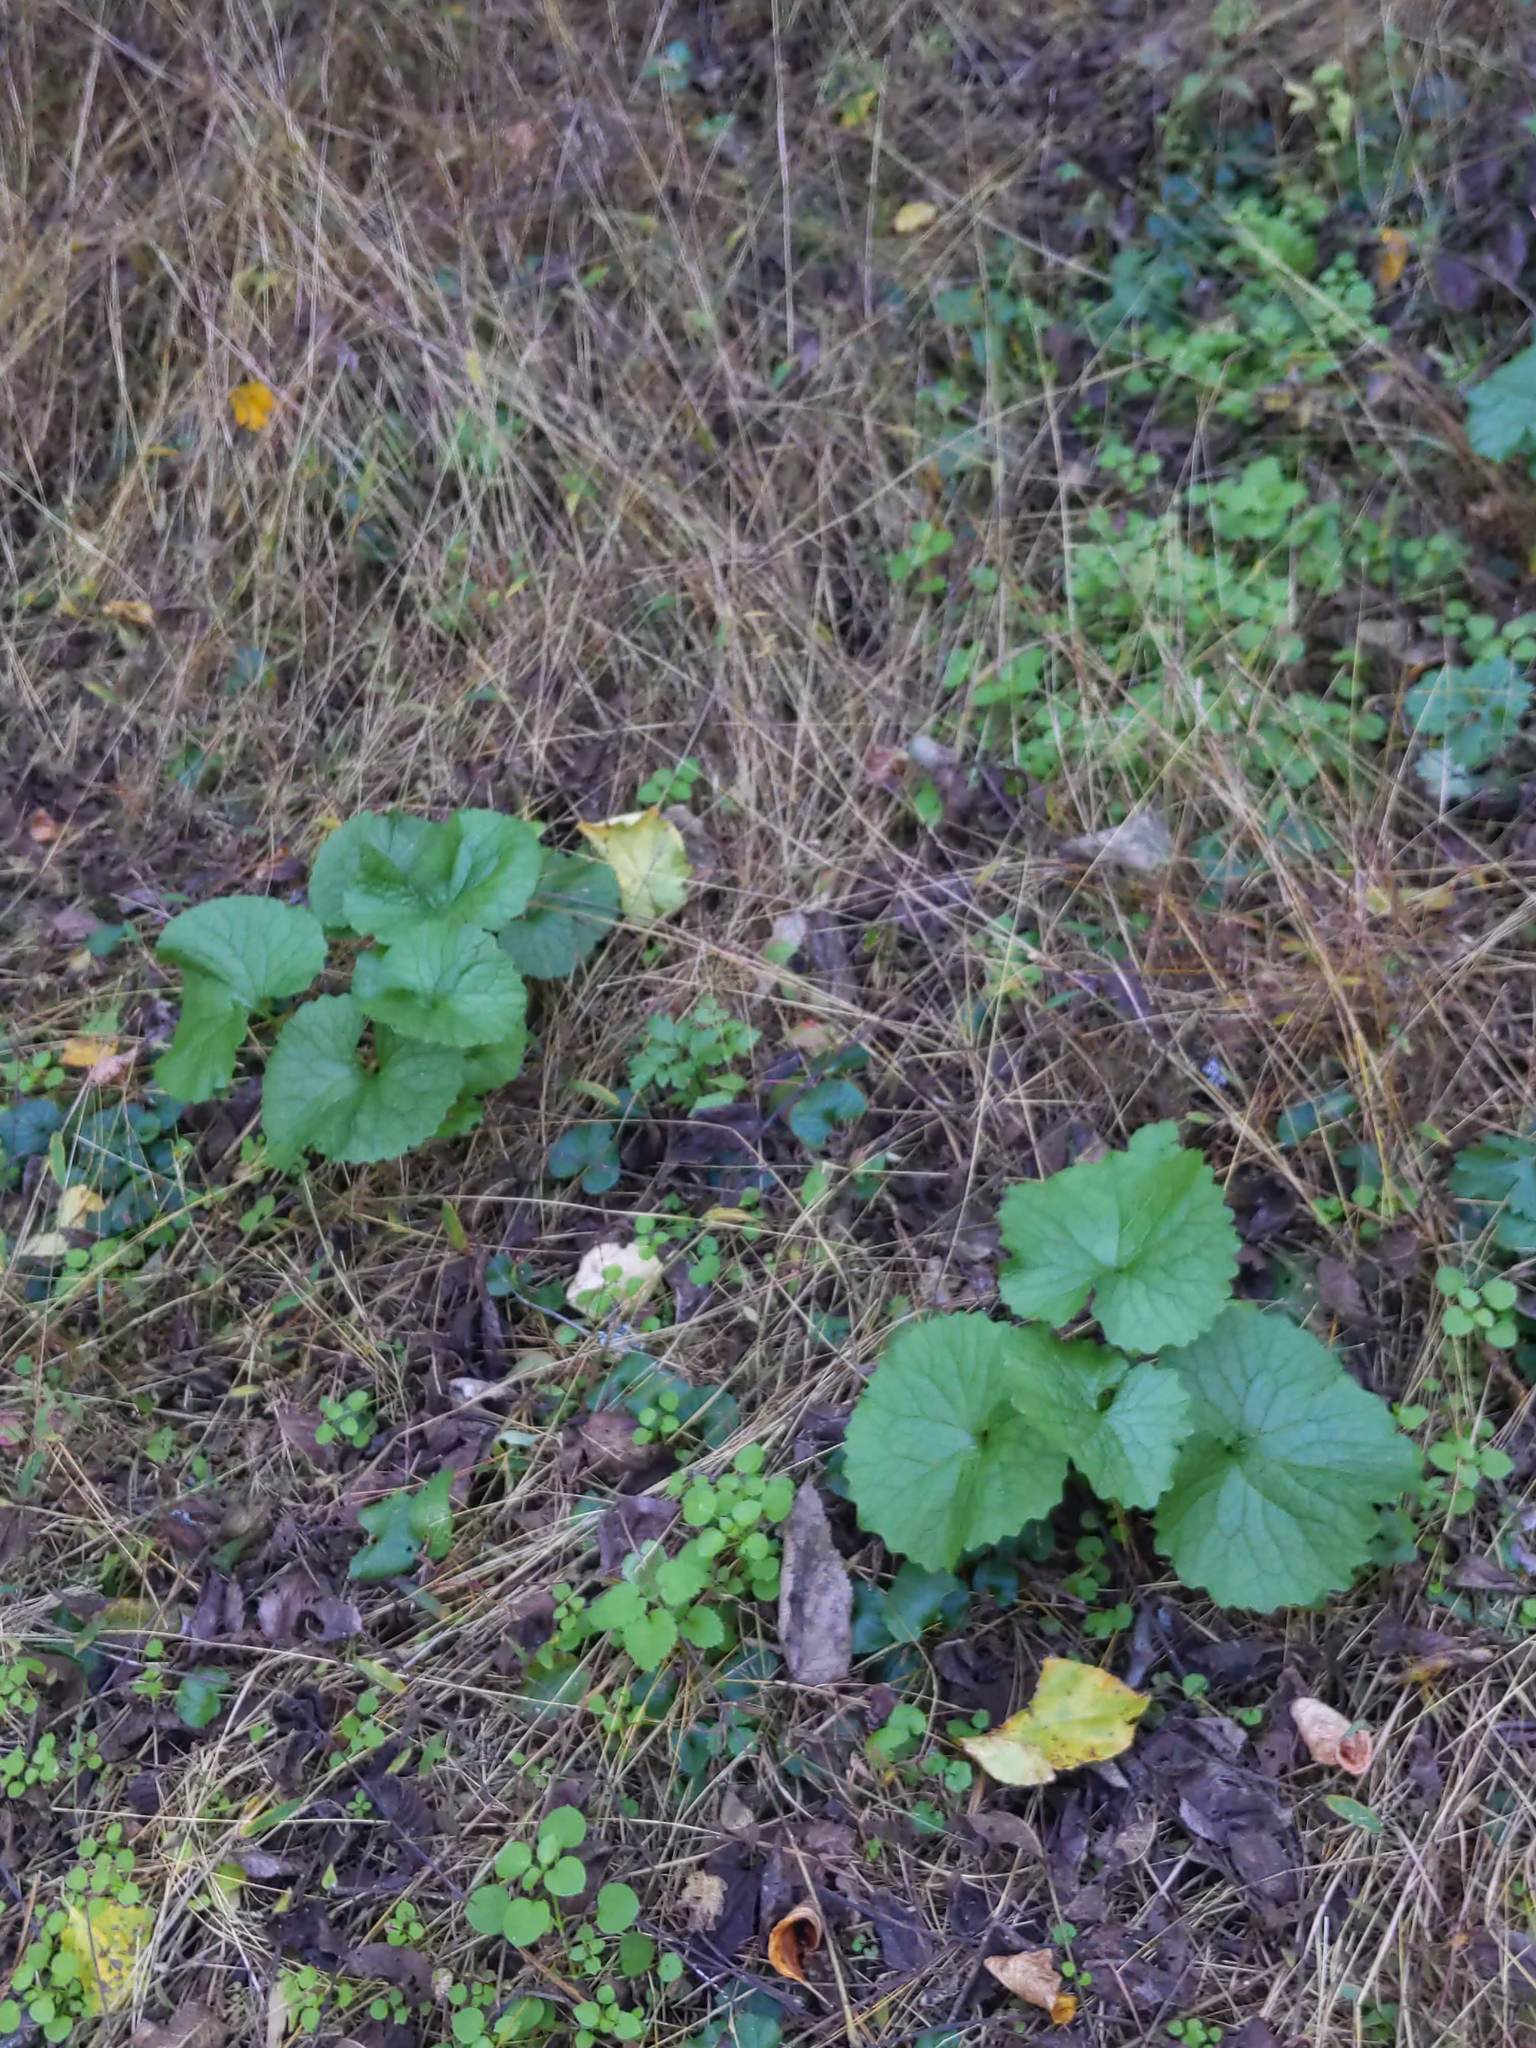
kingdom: Plantae
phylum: Tracheophyta
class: Magnoliopsida
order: Brassicales
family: Brassicaceae
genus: Alliaria
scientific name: Alliaria petiolata
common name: Garlic mustard
